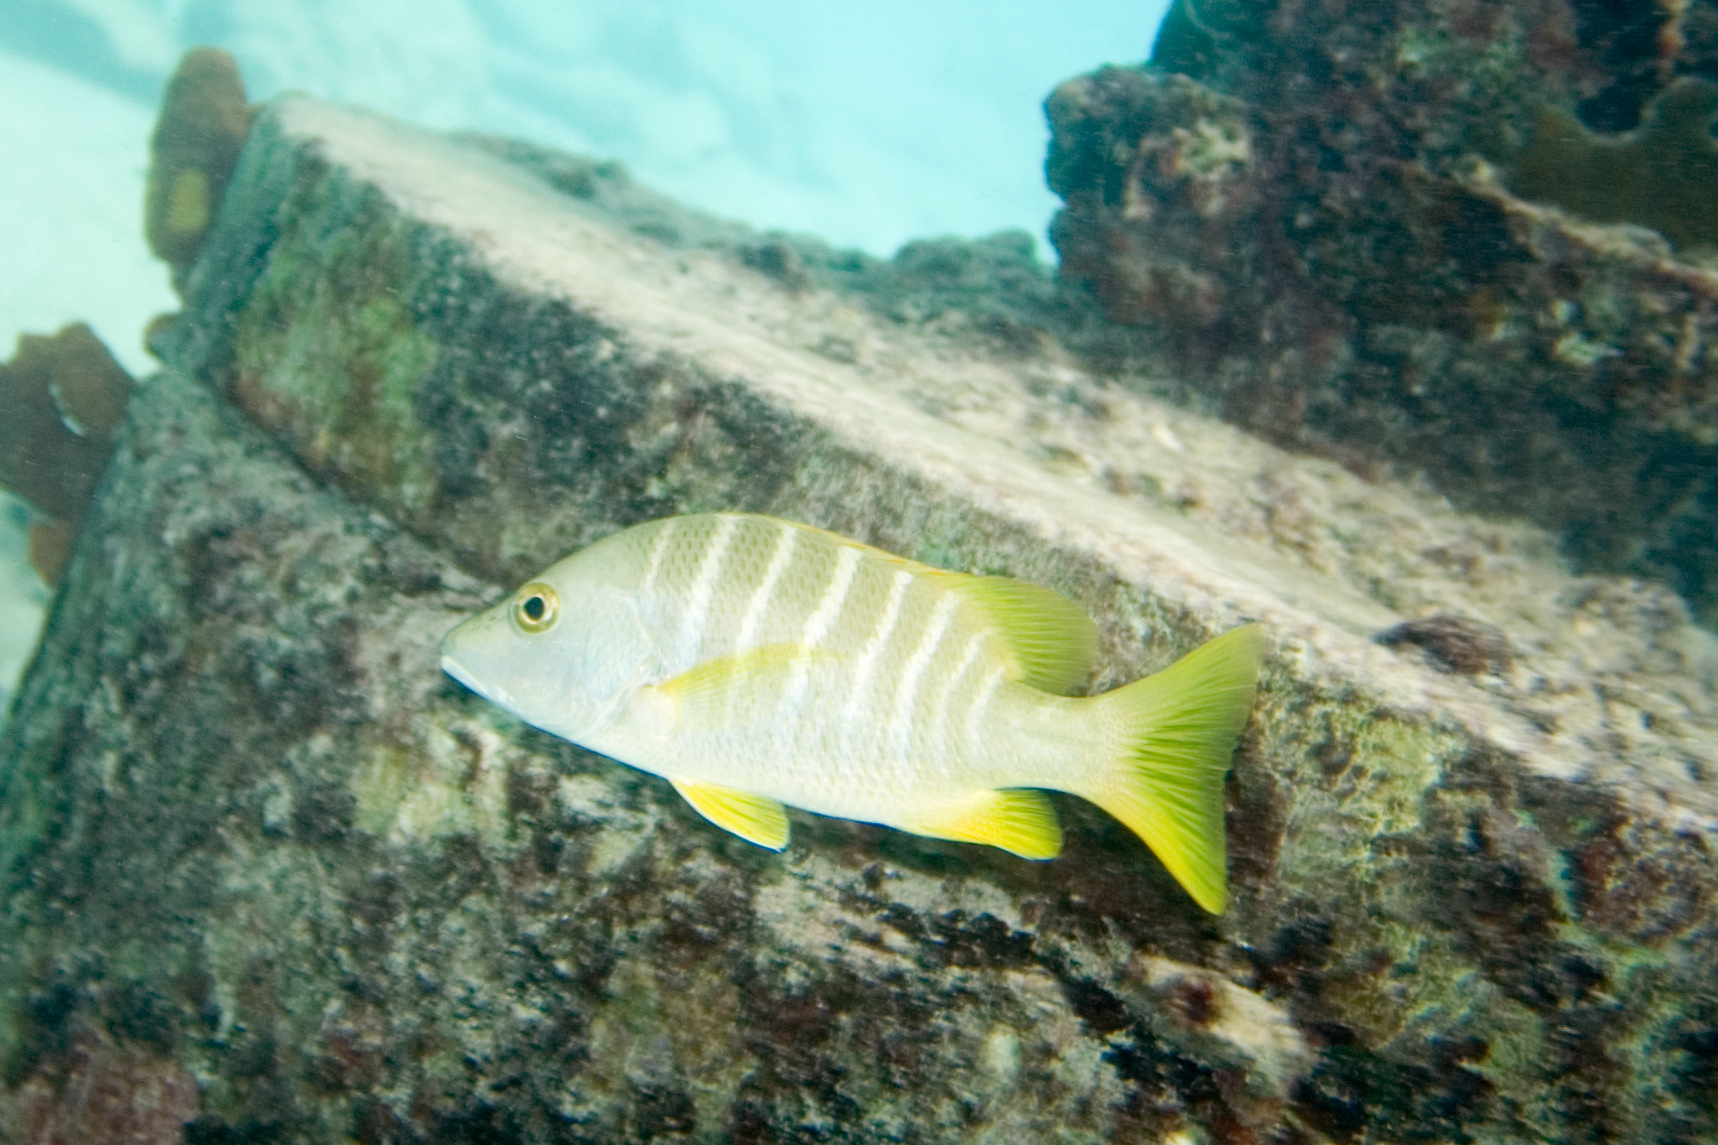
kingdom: Animalia
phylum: Chordata
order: Perciformes
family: Lutjanidae
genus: Lutjanus
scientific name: Lutjanus apodus
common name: Schoolmaster
